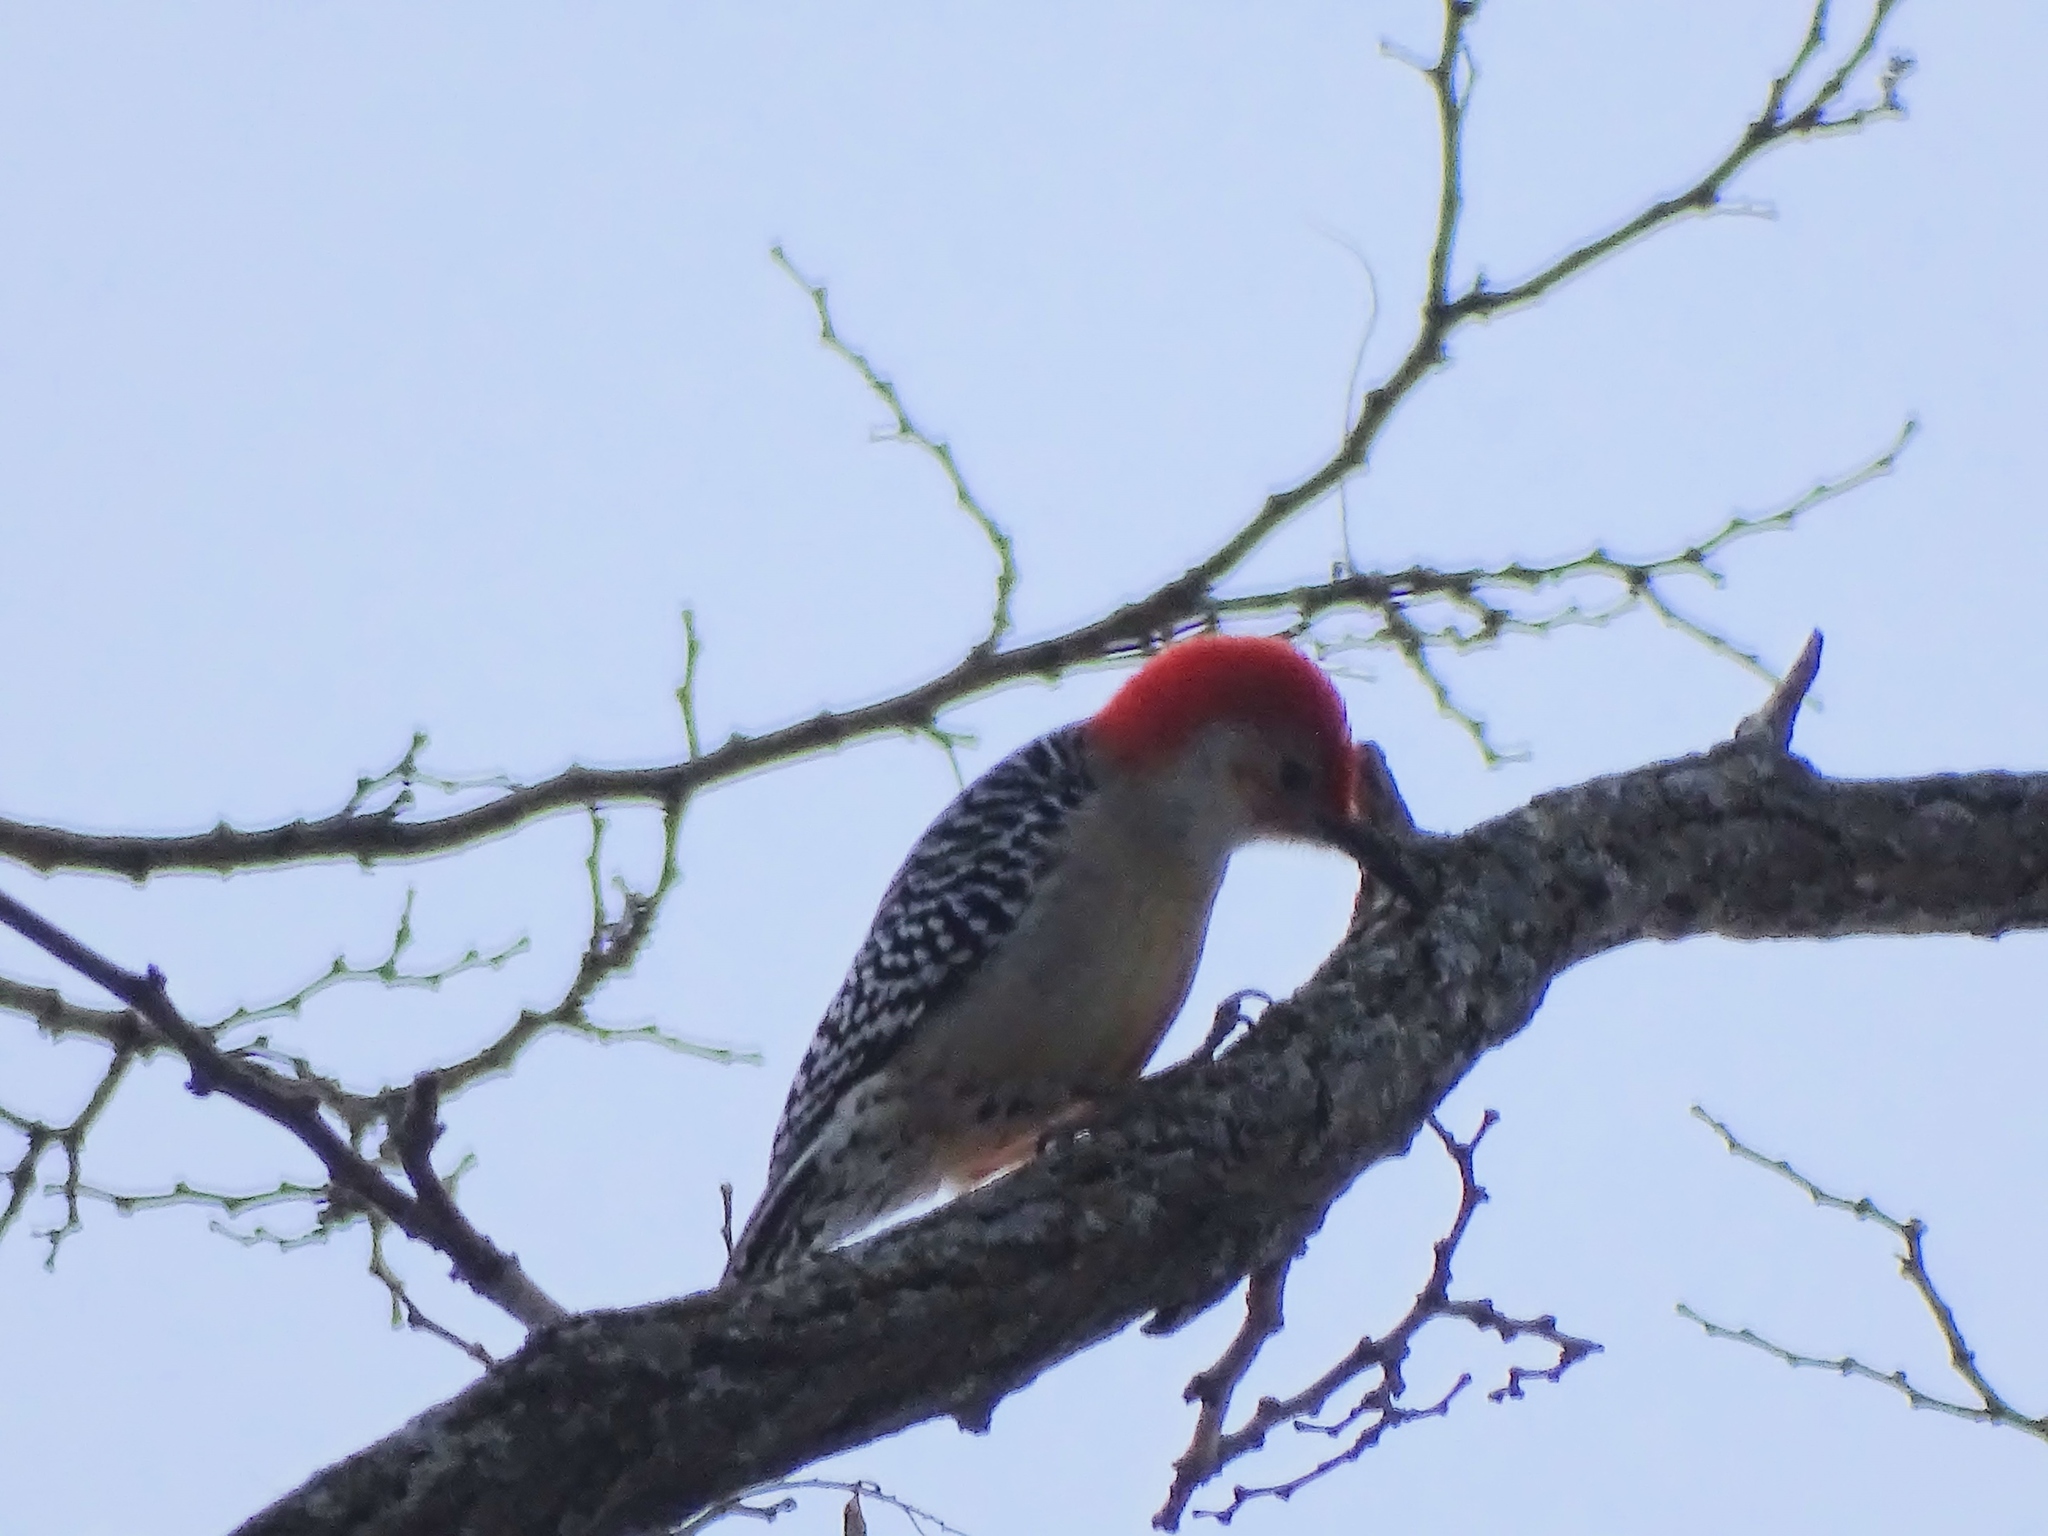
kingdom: Animalia
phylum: Chordata
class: Aves
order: Piciformes
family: Picidae
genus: Melanerpes
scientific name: Melanerpes carolinus
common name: Red-bellied woodpecker
